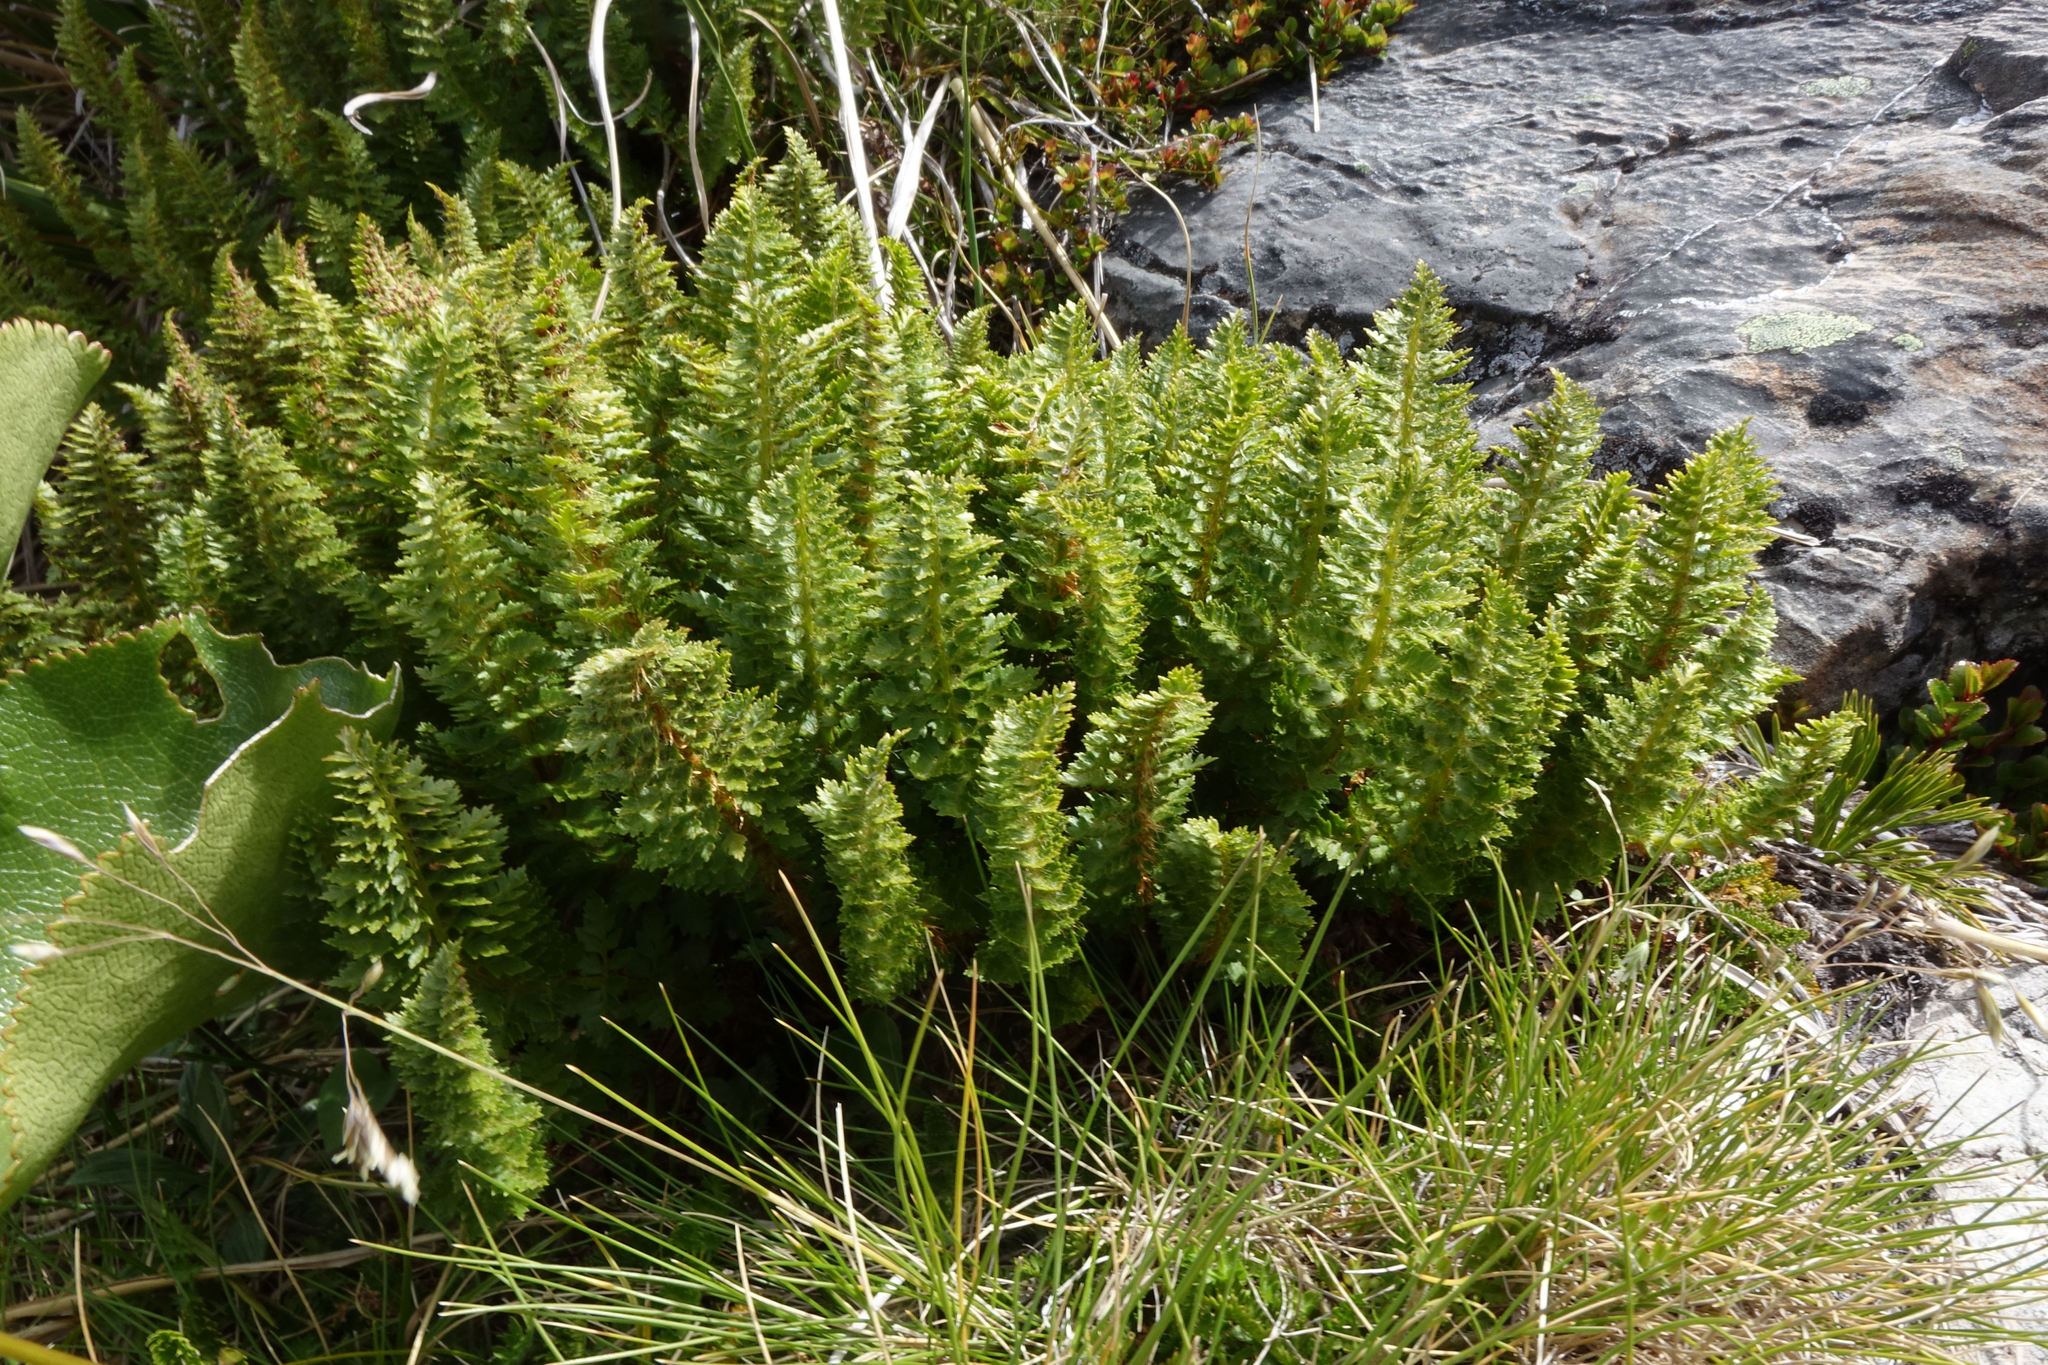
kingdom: Plantae
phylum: Tracheophyta
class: Polypodiopsida
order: Polypodiales
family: Dryopteridaceae
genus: Polystichum
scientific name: Polystichum cystostegia
